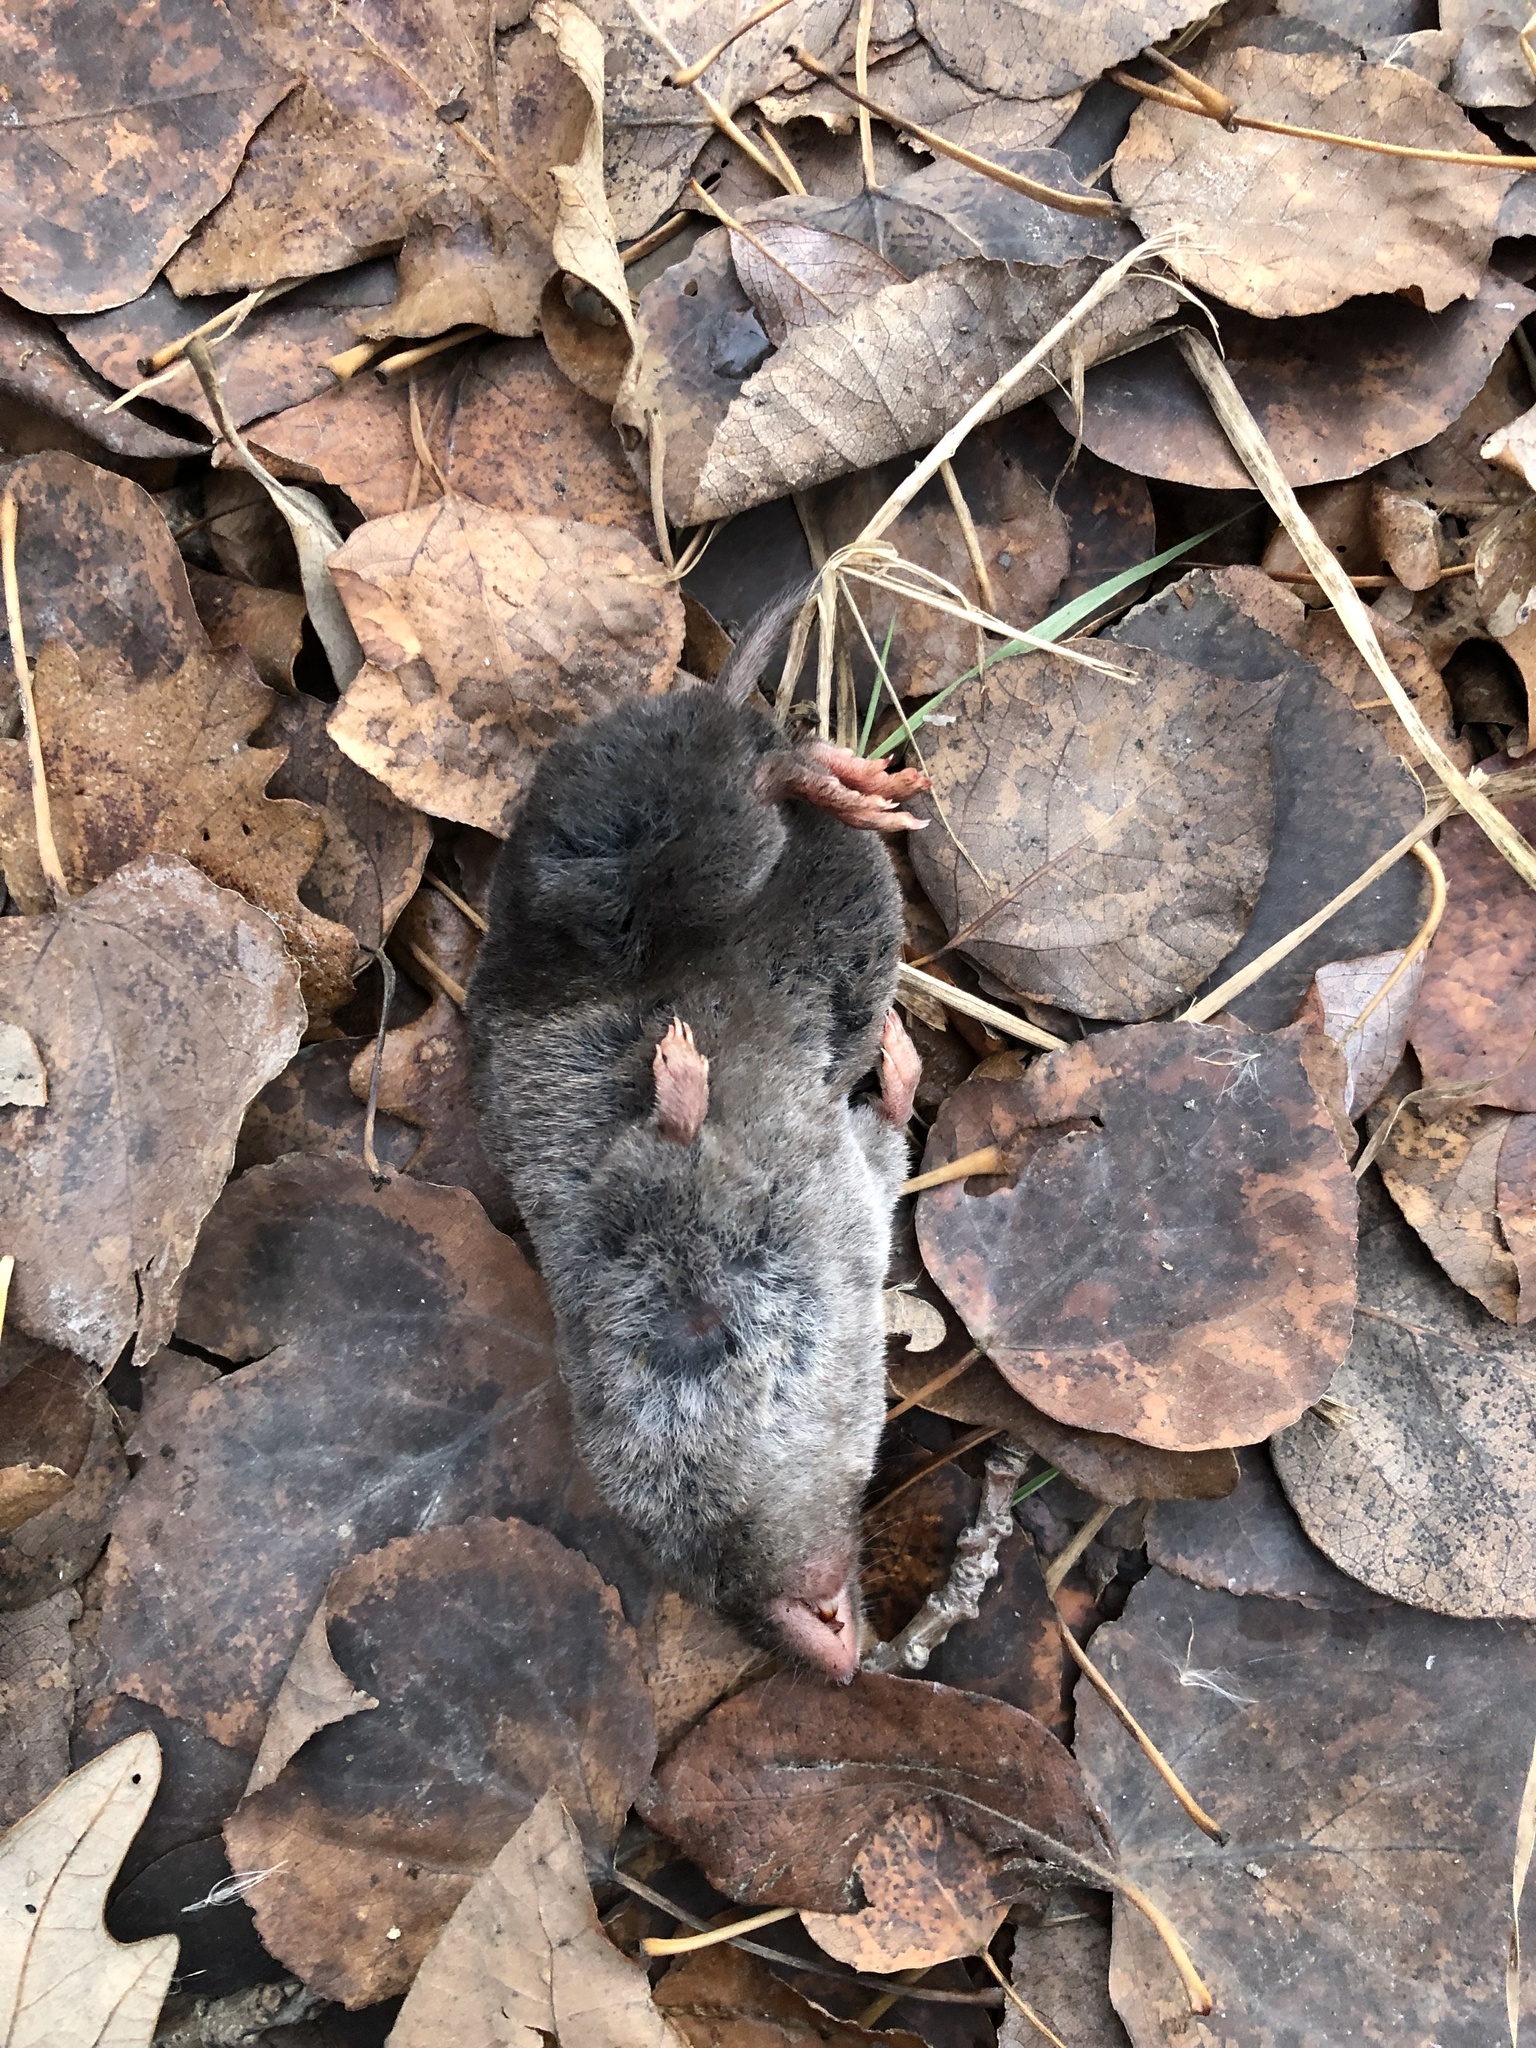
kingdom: Animalia
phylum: Chordata
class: Mammalia
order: Soricomorpha
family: Soricidae
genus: Blarina
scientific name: Blarina brevicauda
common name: Northern short-tailed shrew
